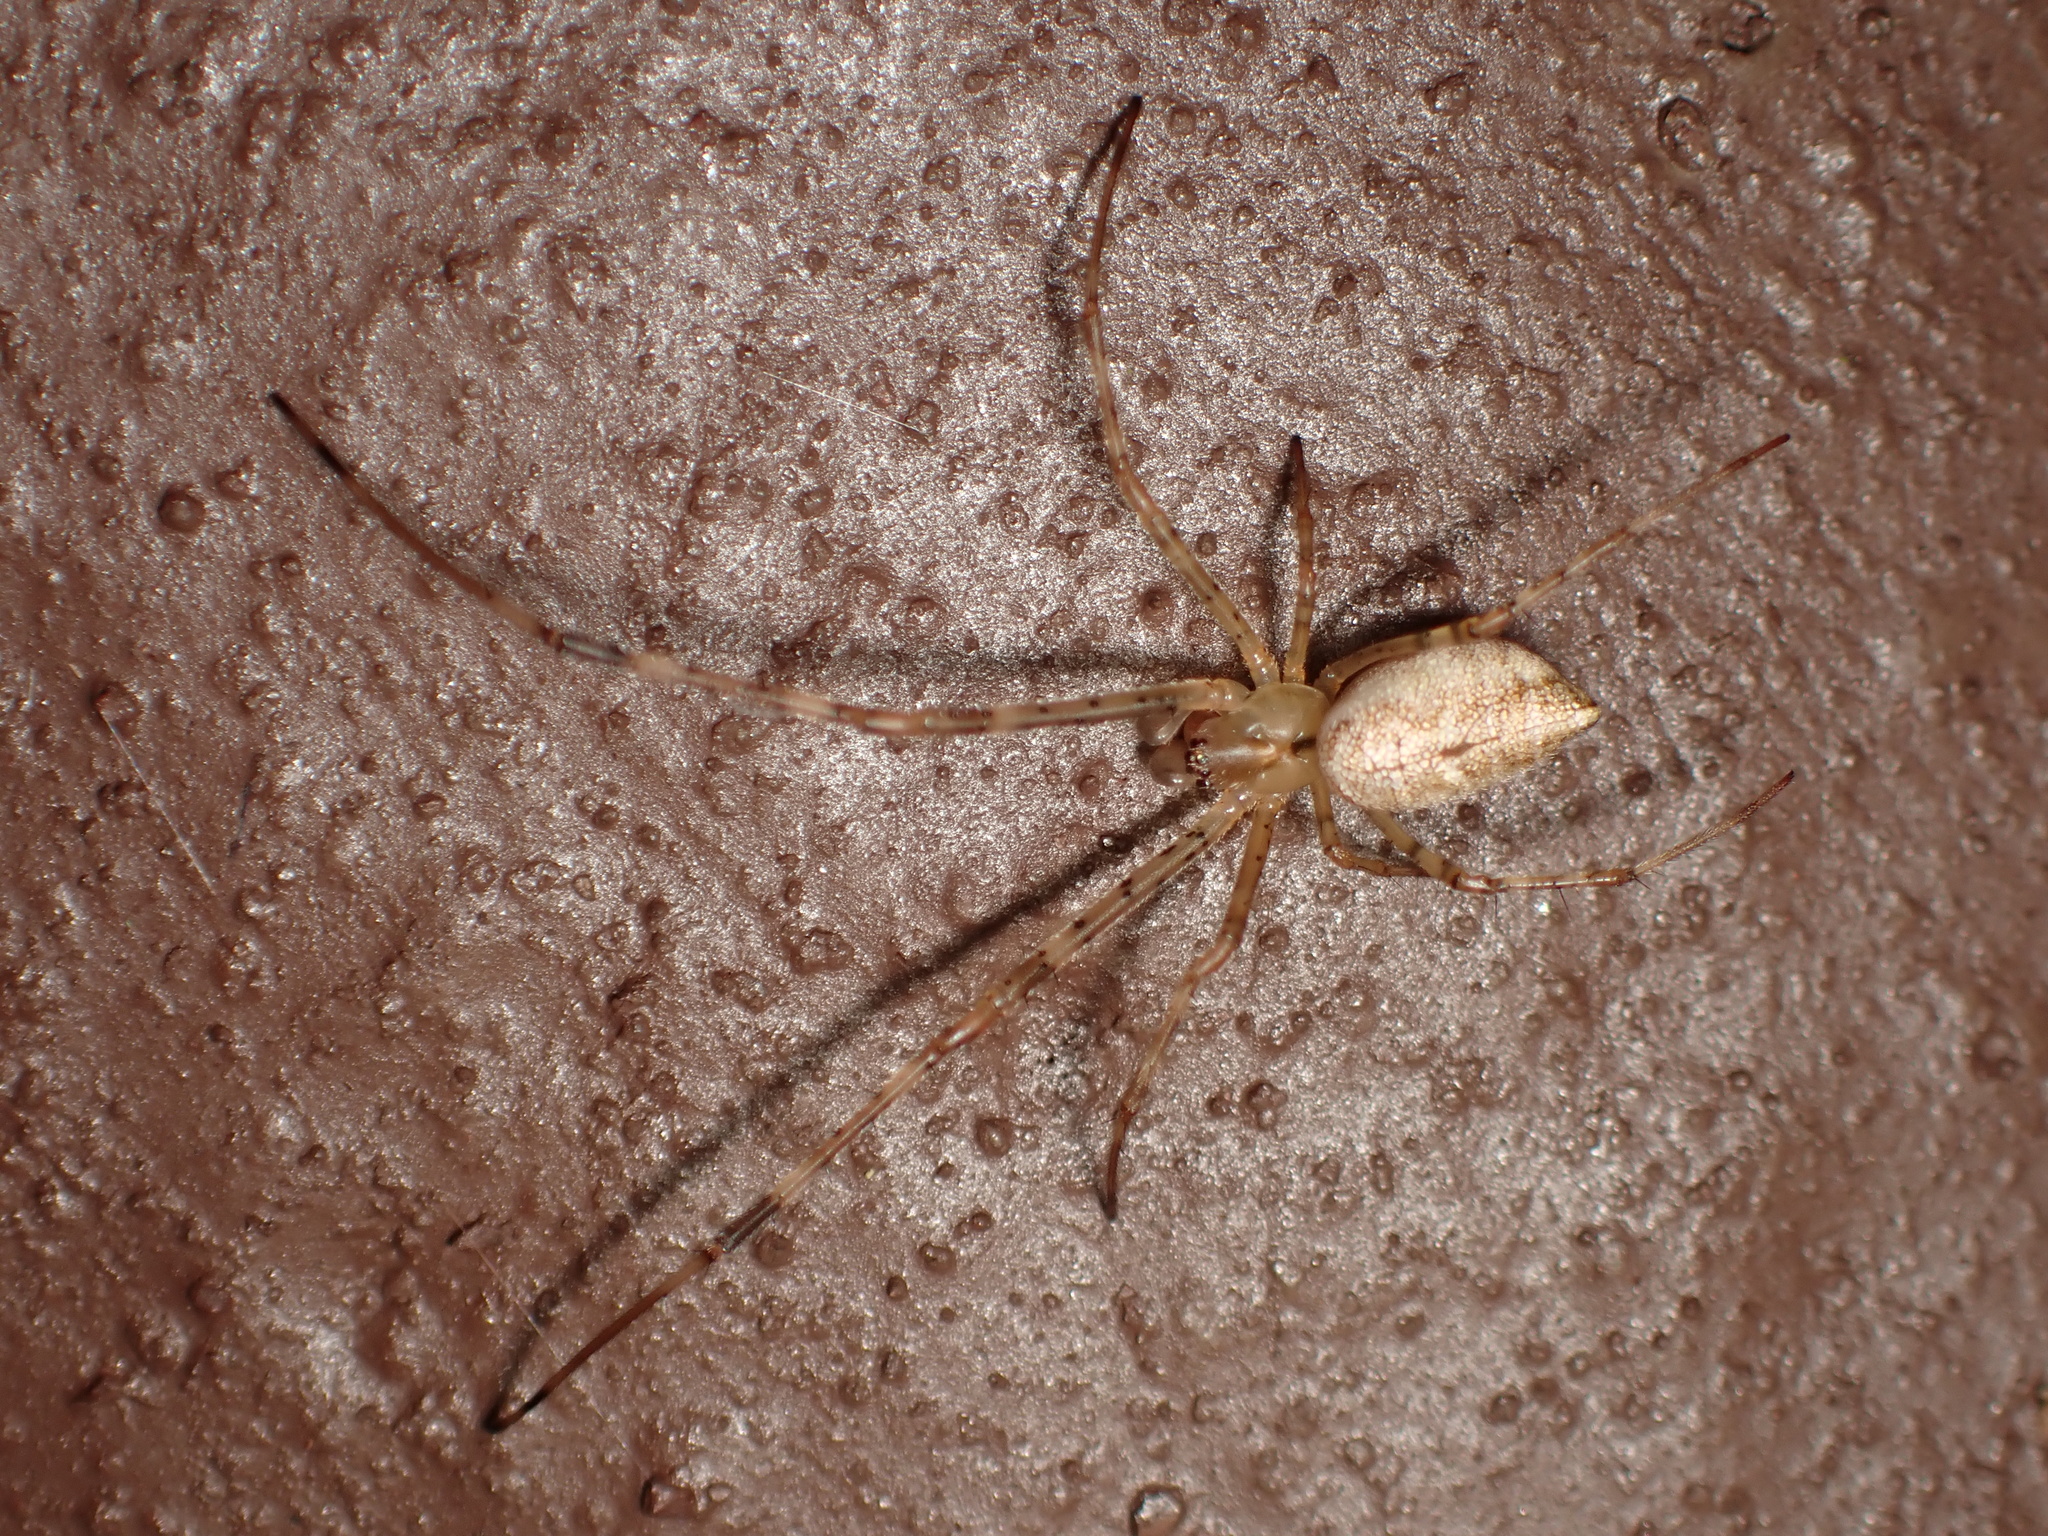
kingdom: Animalia
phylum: Arthropoda
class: Arachnida
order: Araneae
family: Tetragnathidae
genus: Tylorida
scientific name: Tylorida ventralis
